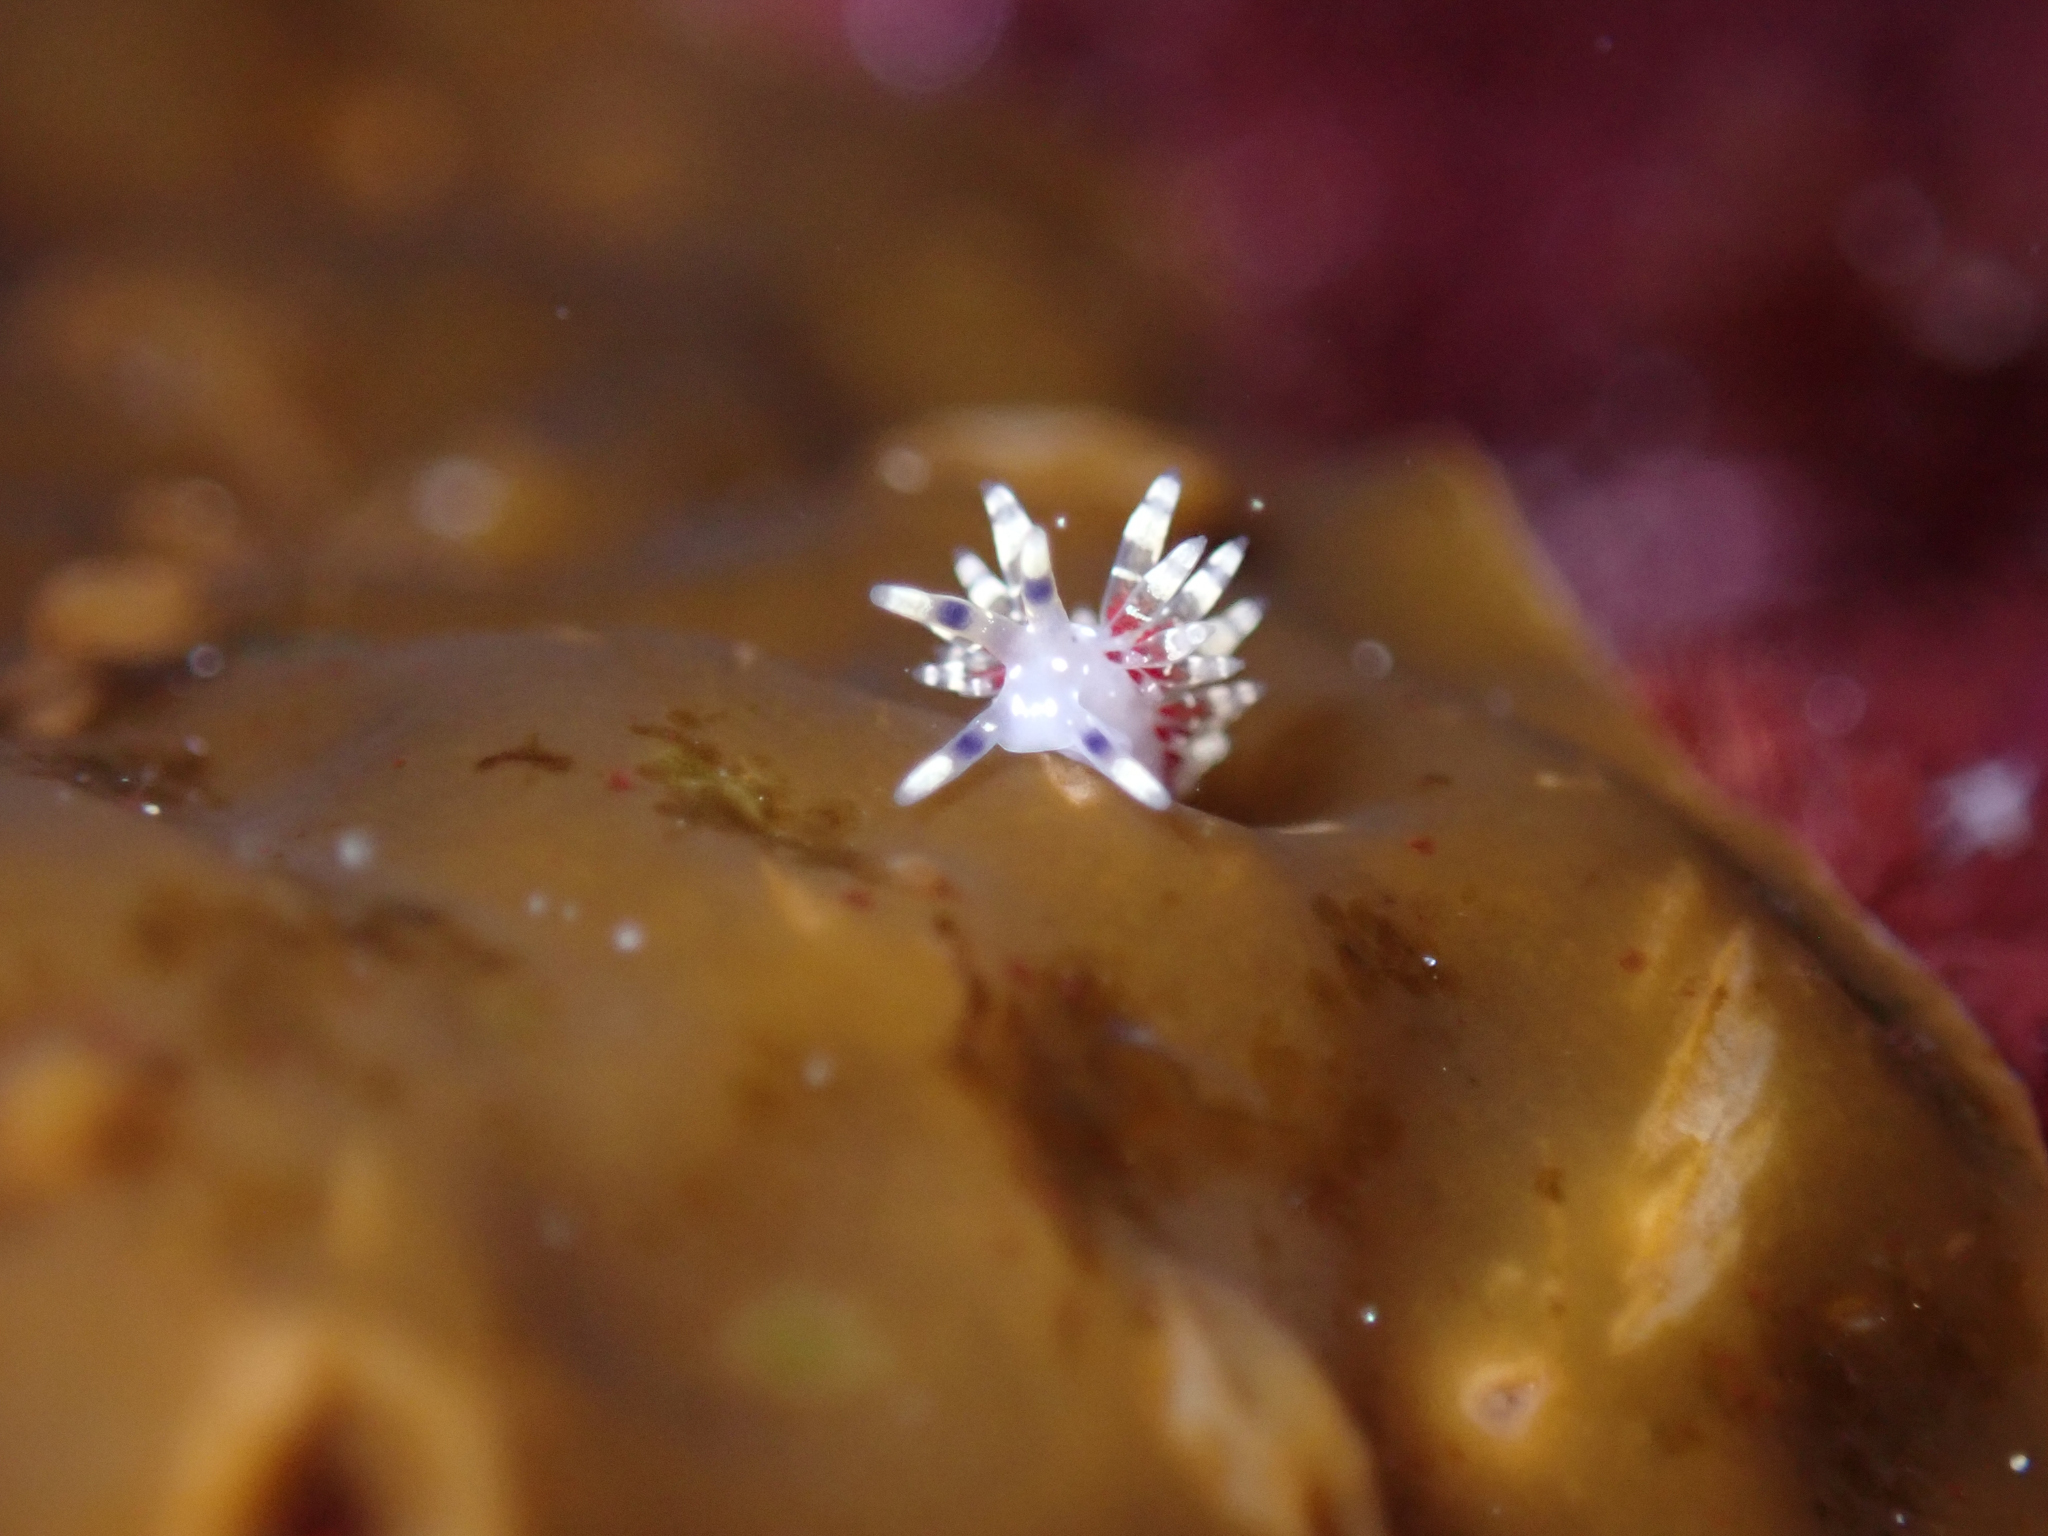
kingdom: Animalia
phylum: Mollusca
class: Gastropoda
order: Nudibranchia
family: Abronicidae
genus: Abronica
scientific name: Abronica abronia
